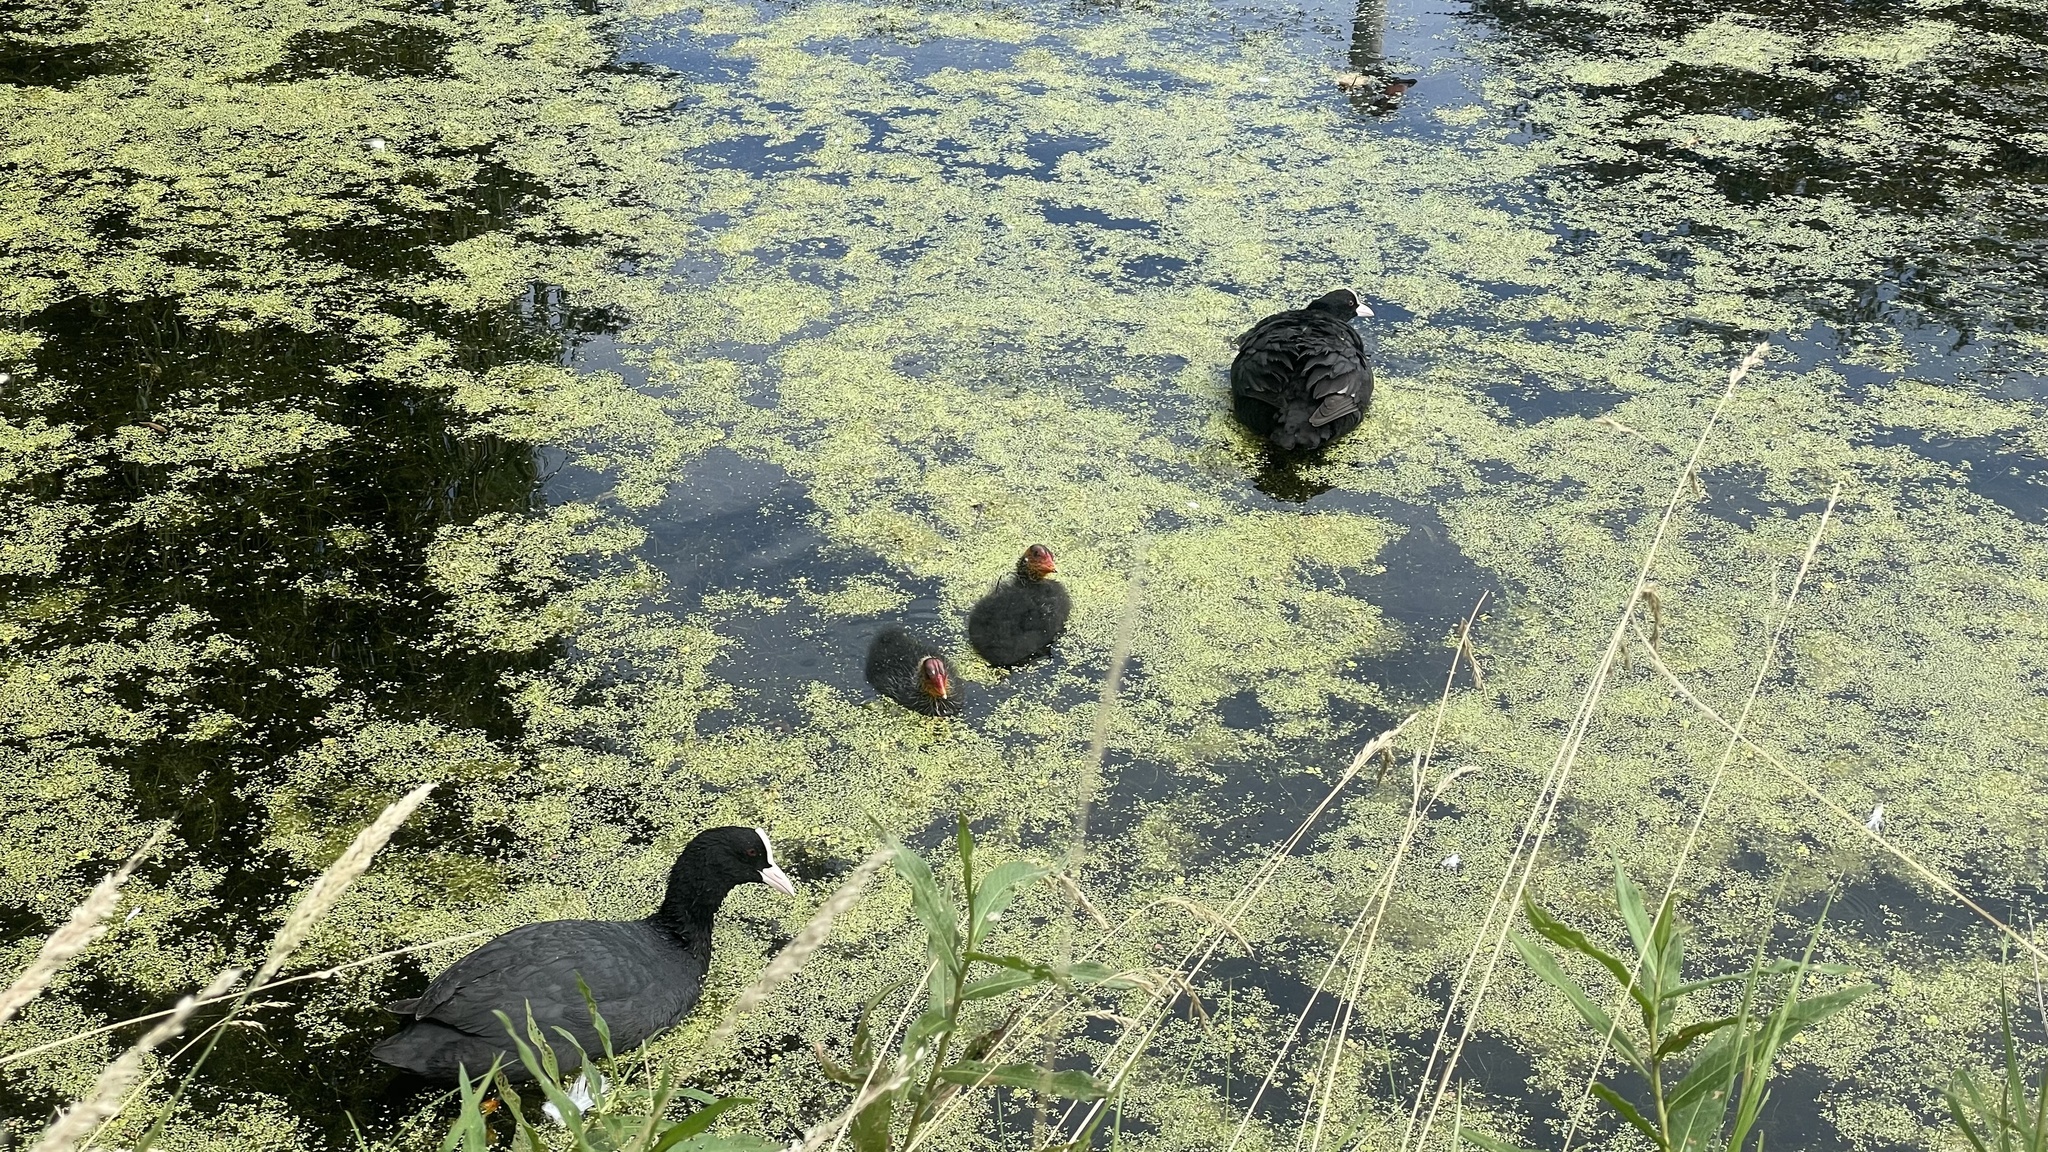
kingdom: Animalia
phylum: Chordata
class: Aves
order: Gruiformes
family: Rallidae
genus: Fulica
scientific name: Fulica atra
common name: Eurasian coot
